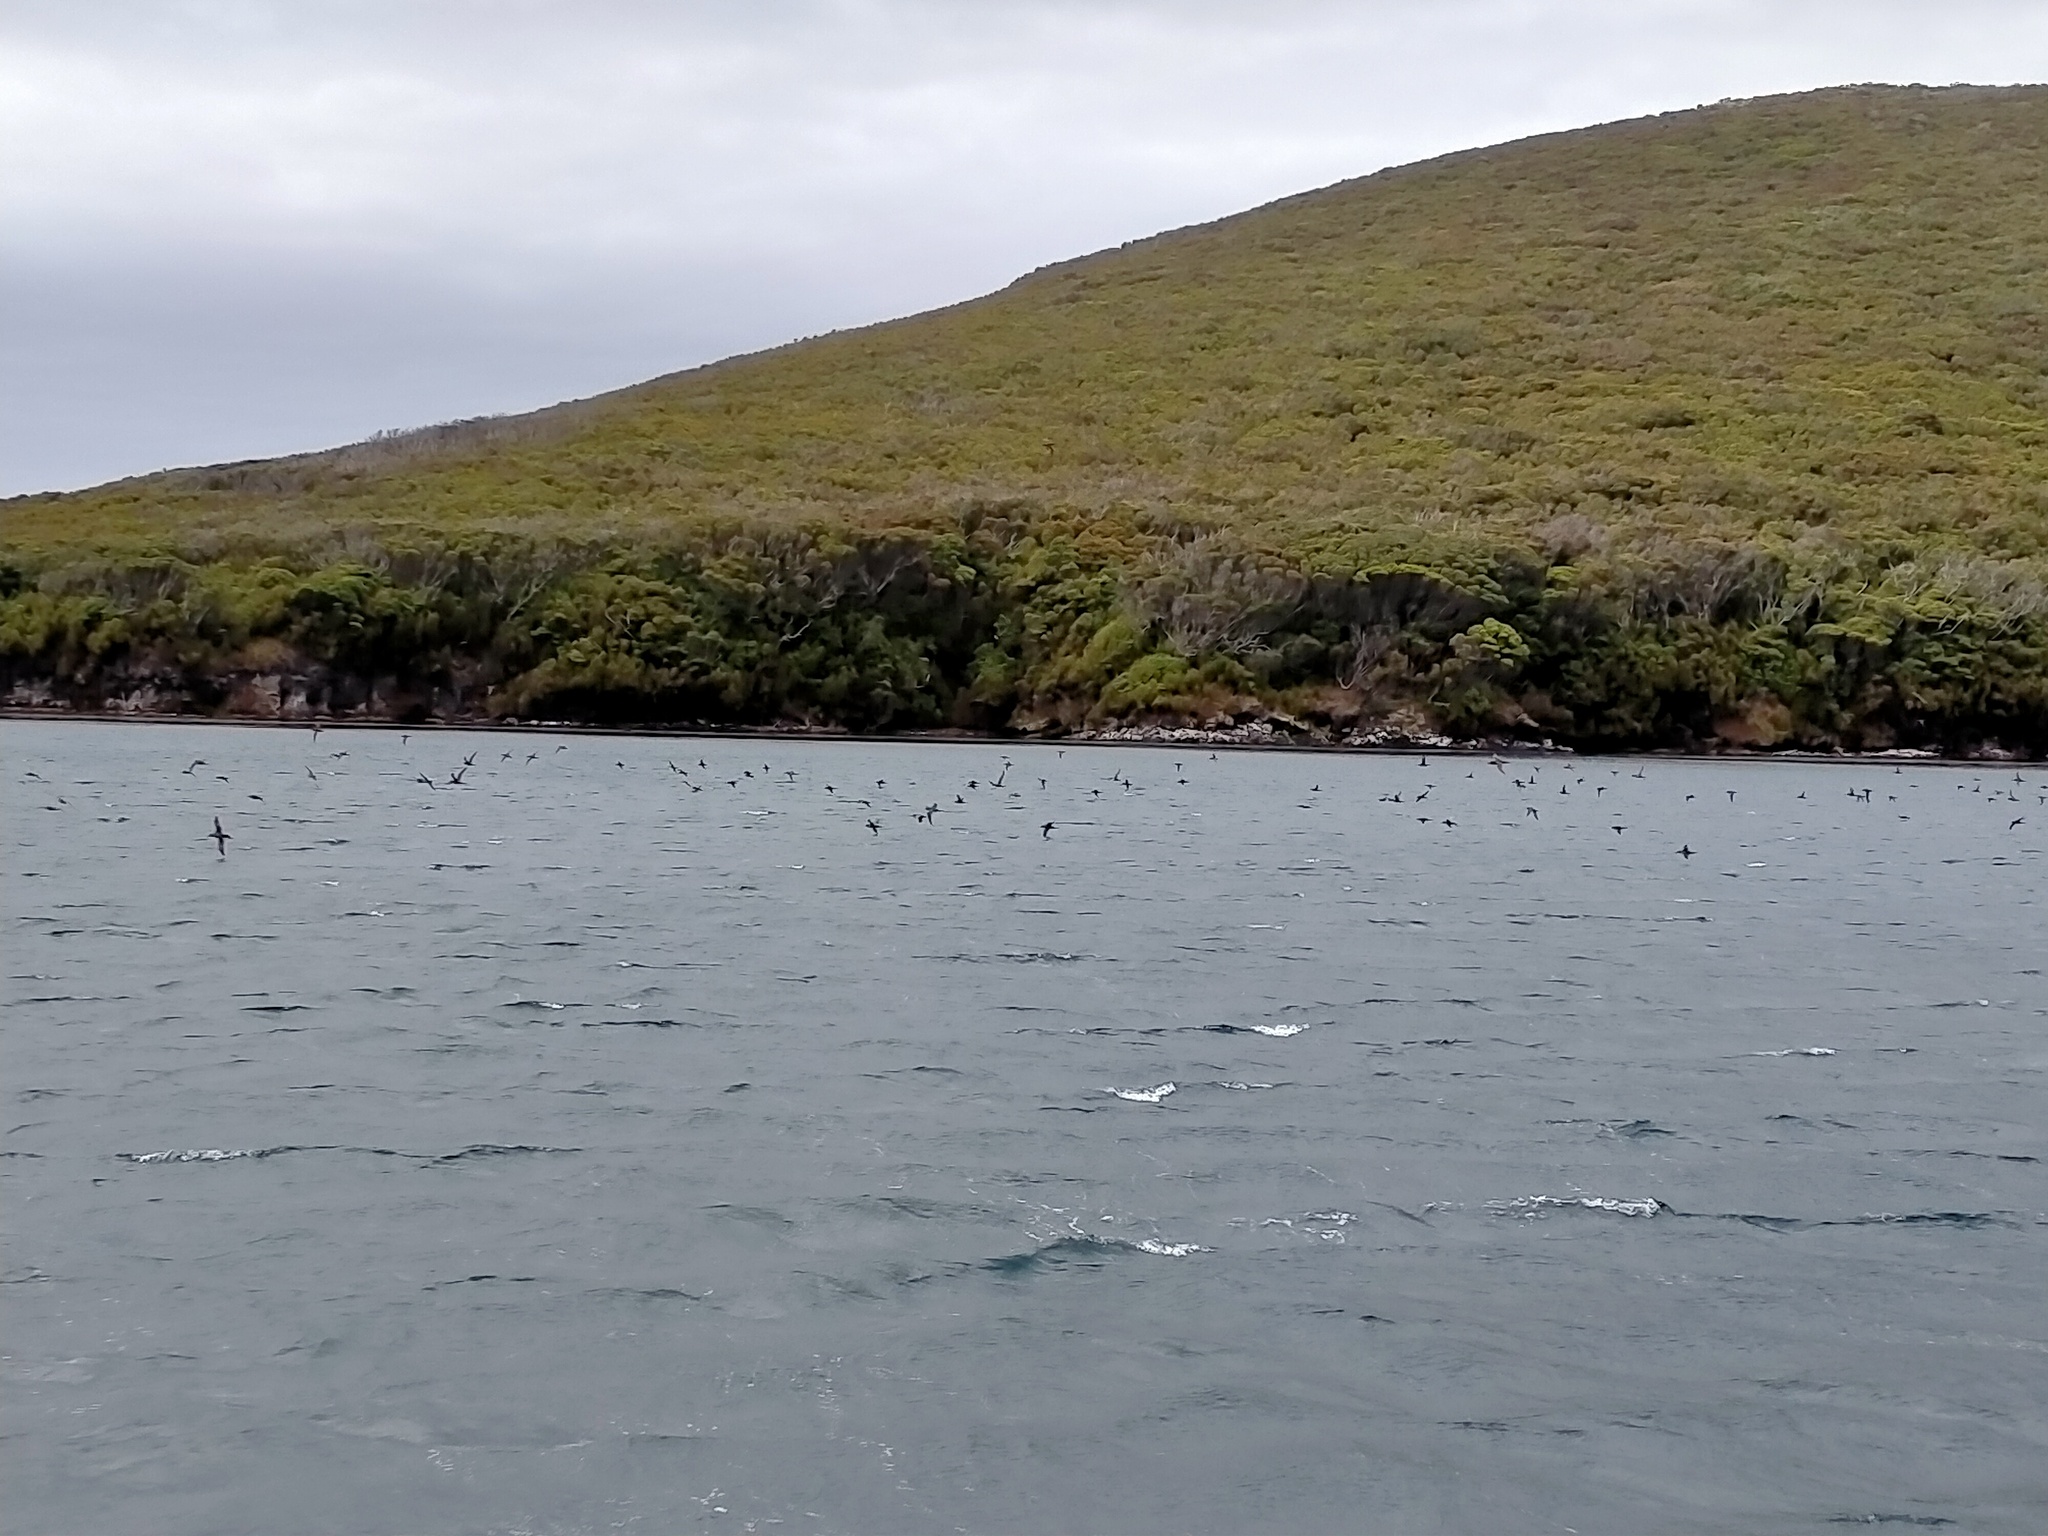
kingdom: Animalia
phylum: Chordata
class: Aves
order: Procellariiformes
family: Procellariidae
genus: Puffinus
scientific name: Puffinus griseus
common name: Sooty shearwater
